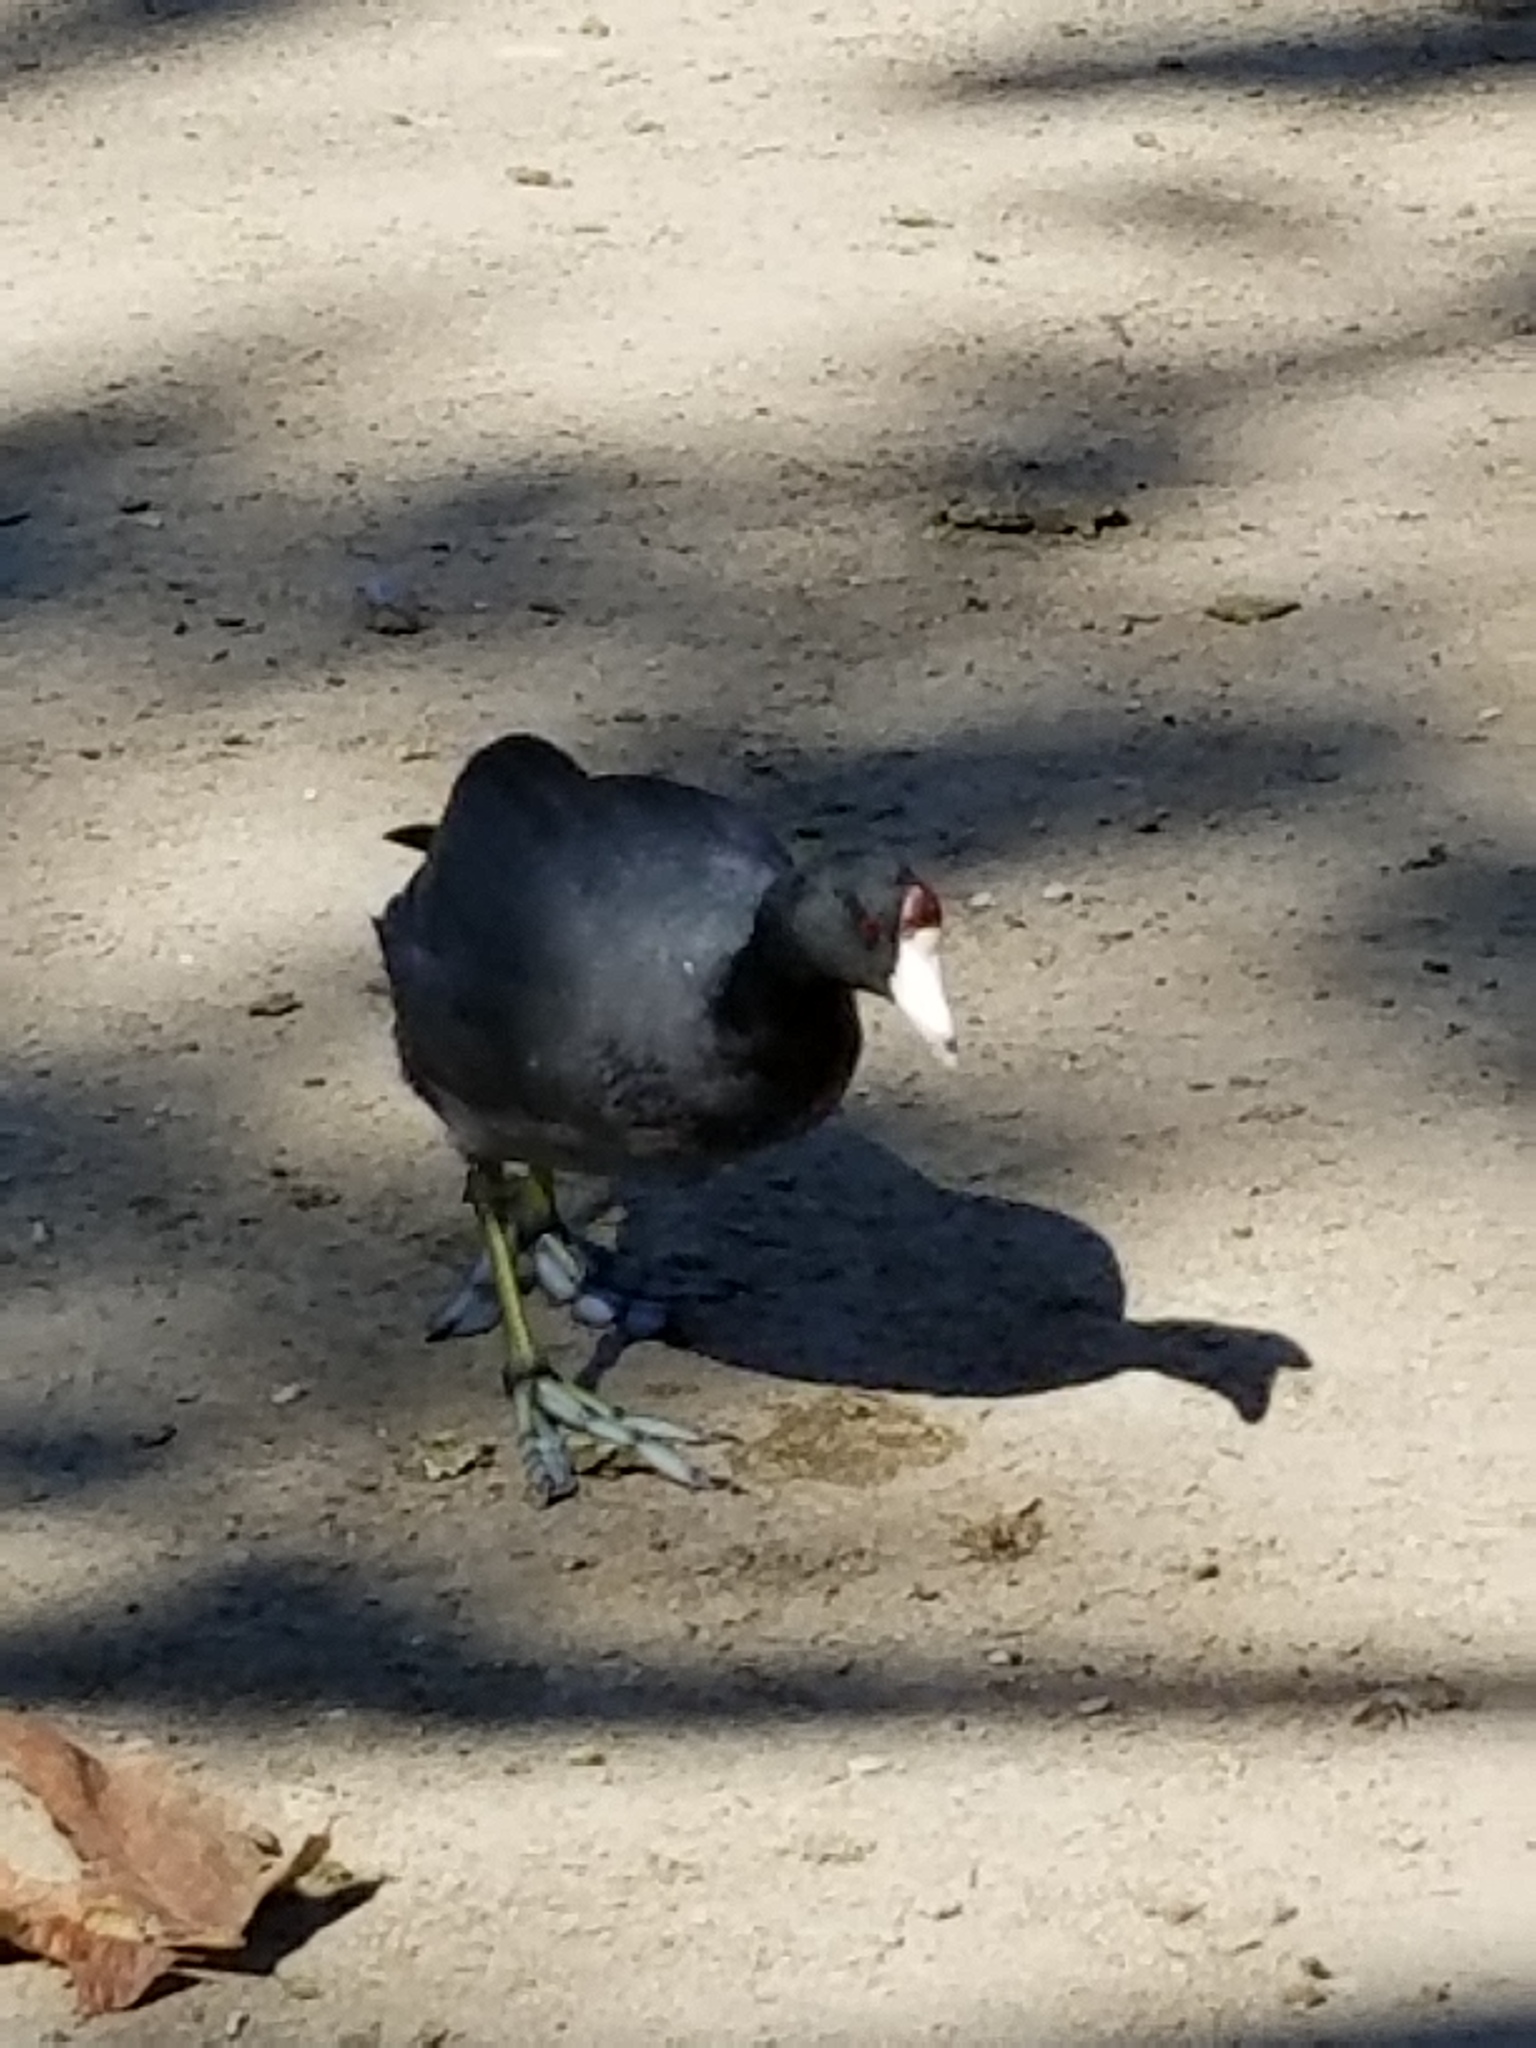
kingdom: Animalia
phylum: Chordata
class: Aves
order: Gruiformes
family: Rallidae
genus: Fulica
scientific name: Fulica americana
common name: American coot
